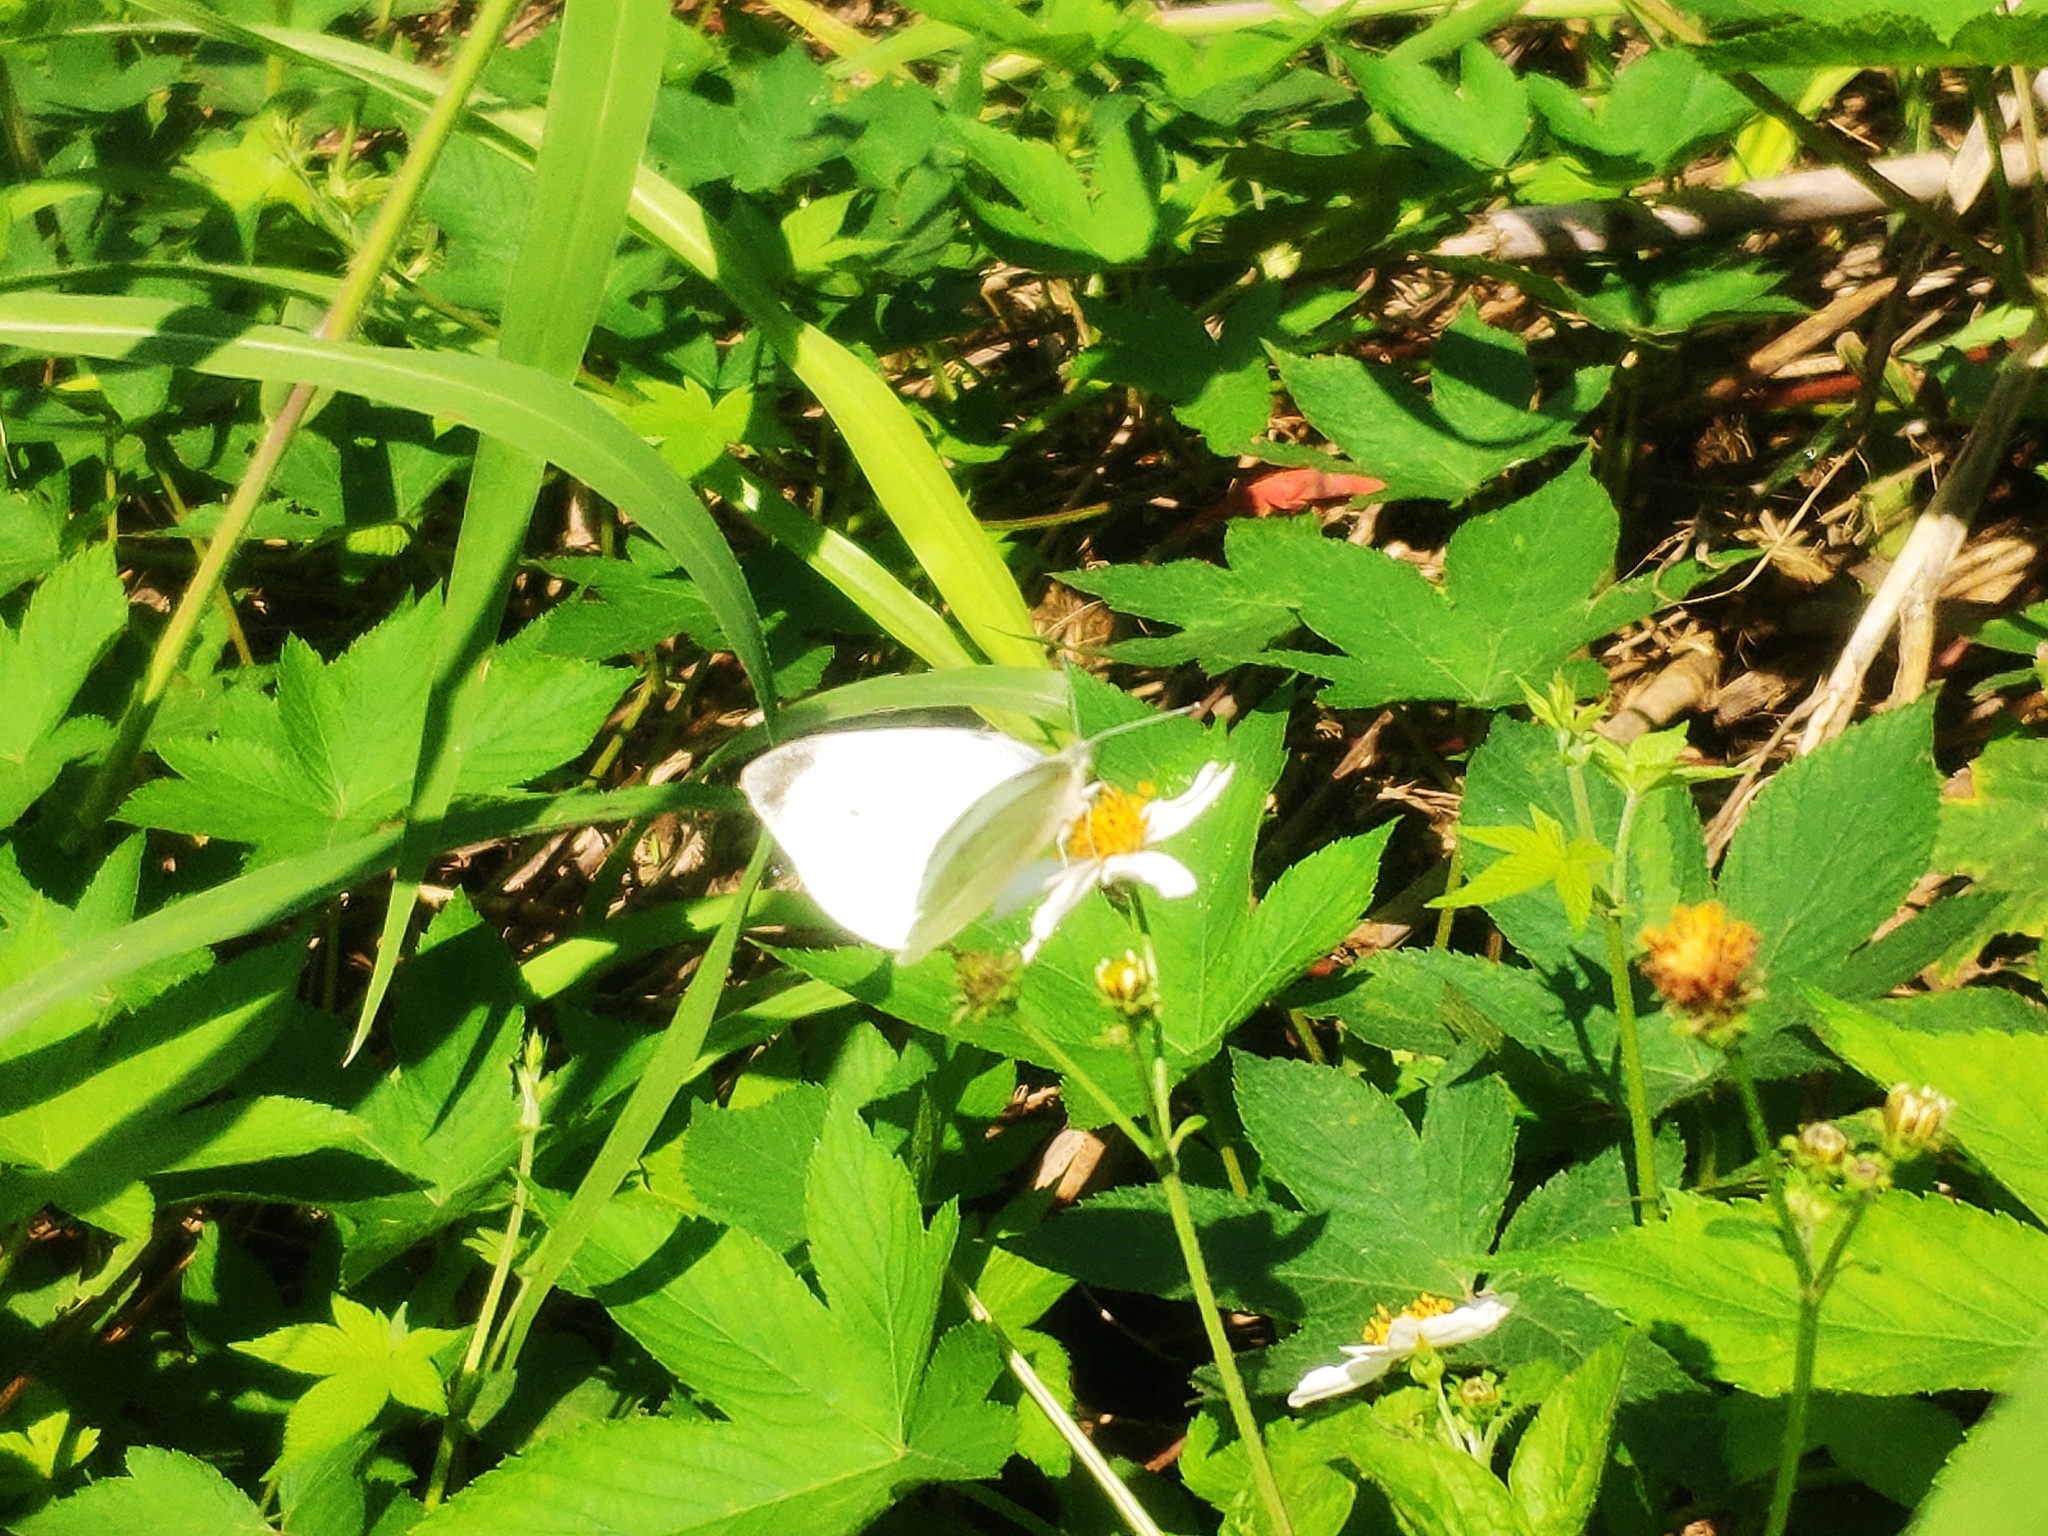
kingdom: Animalia
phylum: Arthropoda
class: Insecta
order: Lepidoptera
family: Pieridae
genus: Pieris
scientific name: Pieris rapae
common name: Small white
